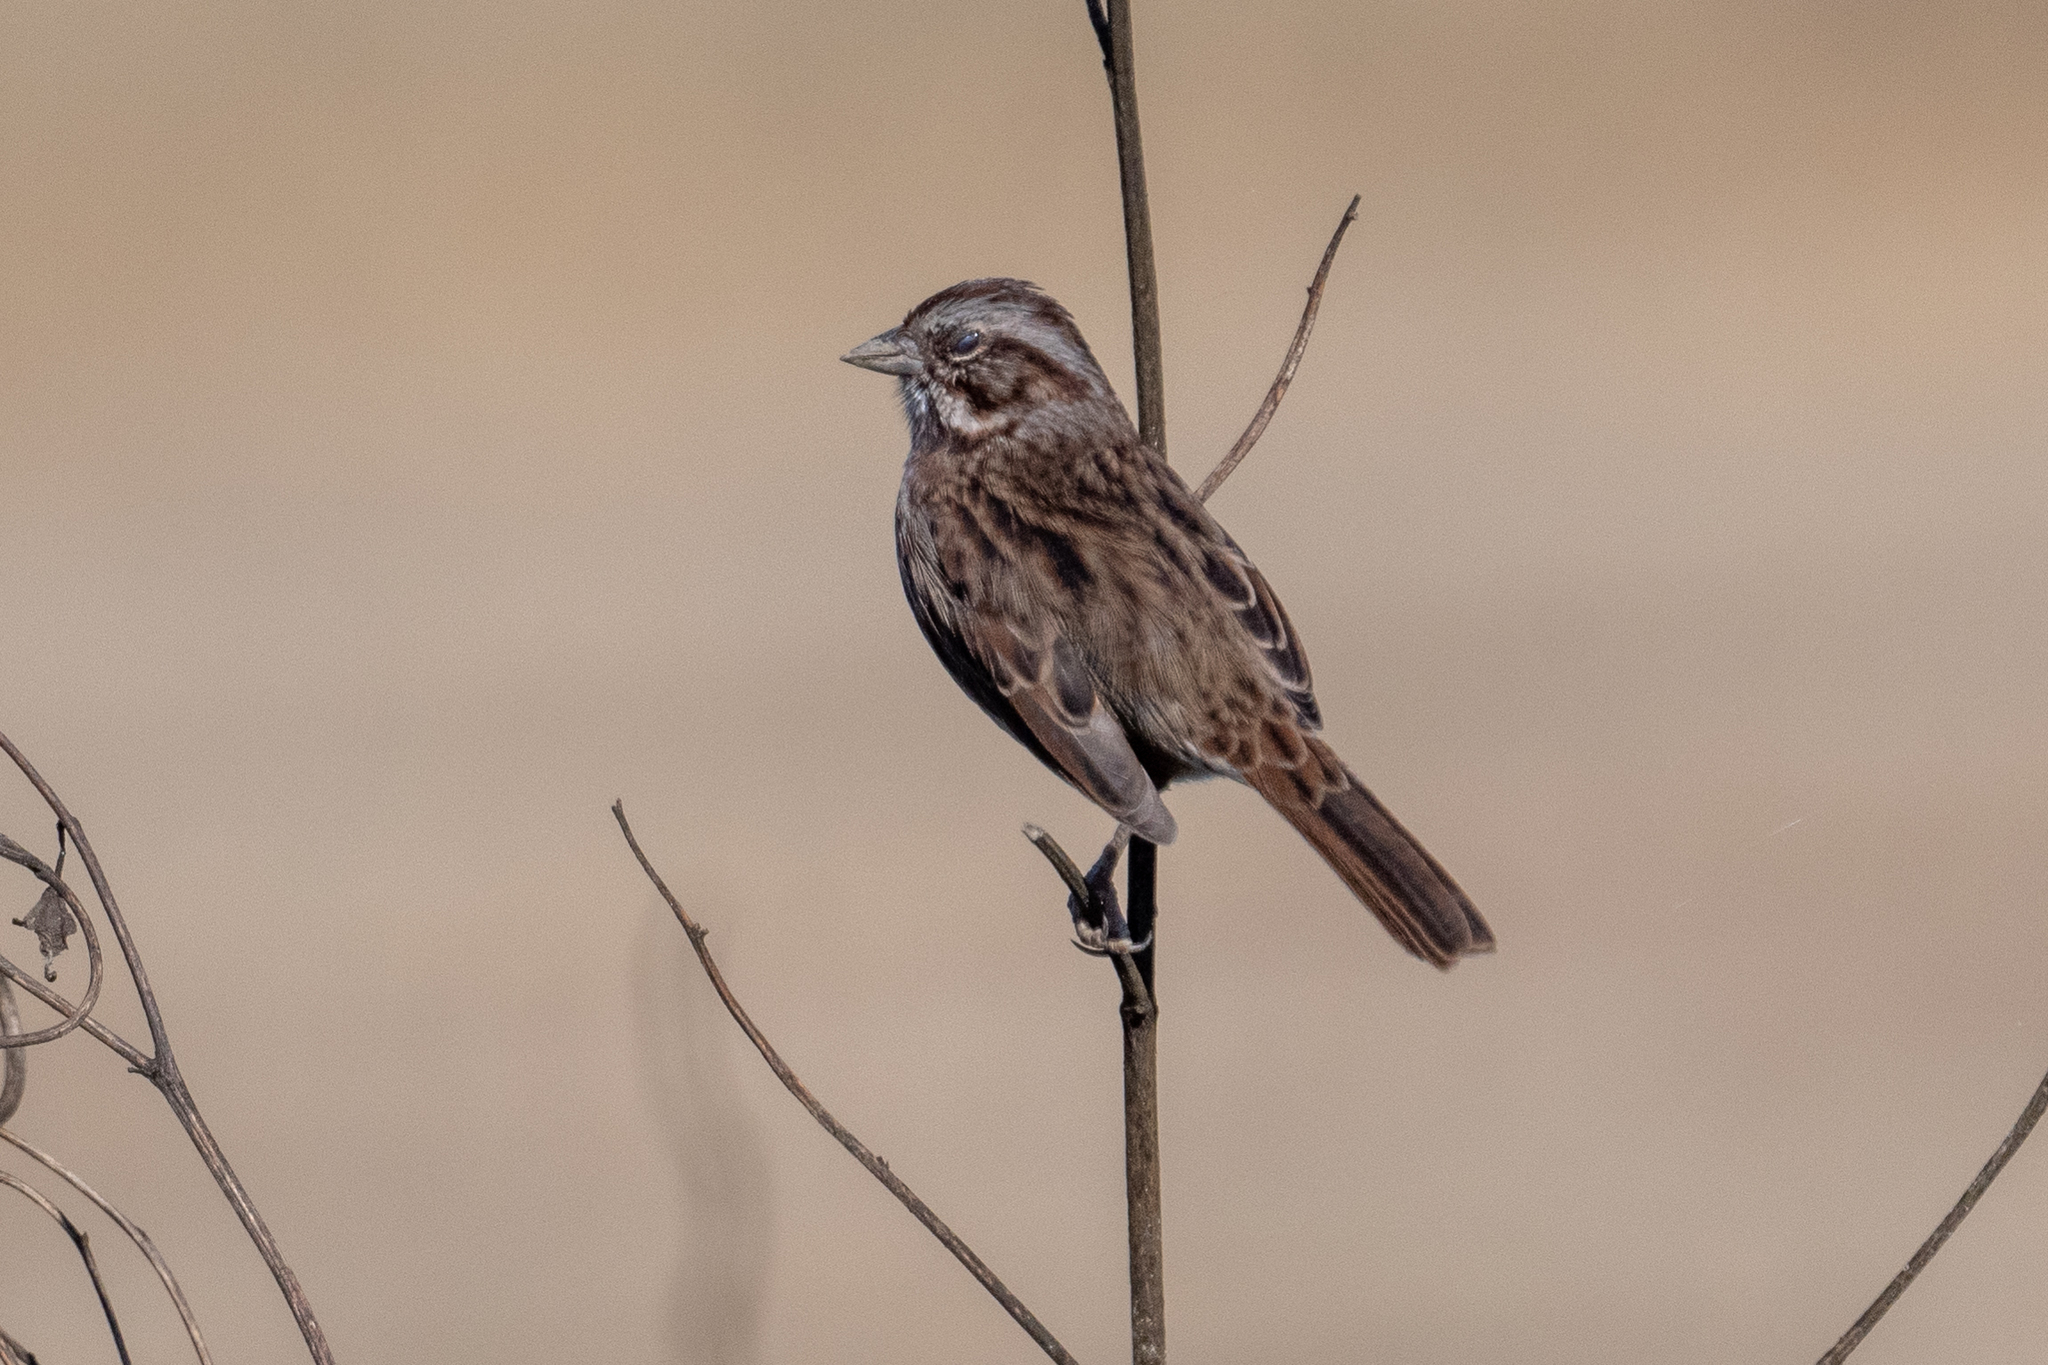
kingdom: Animalia
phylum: Chordata
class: Aves
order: Passeriformes
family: Passerellidae
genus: Melospiza
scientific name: Melospiza melodia
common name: Song sparrow
